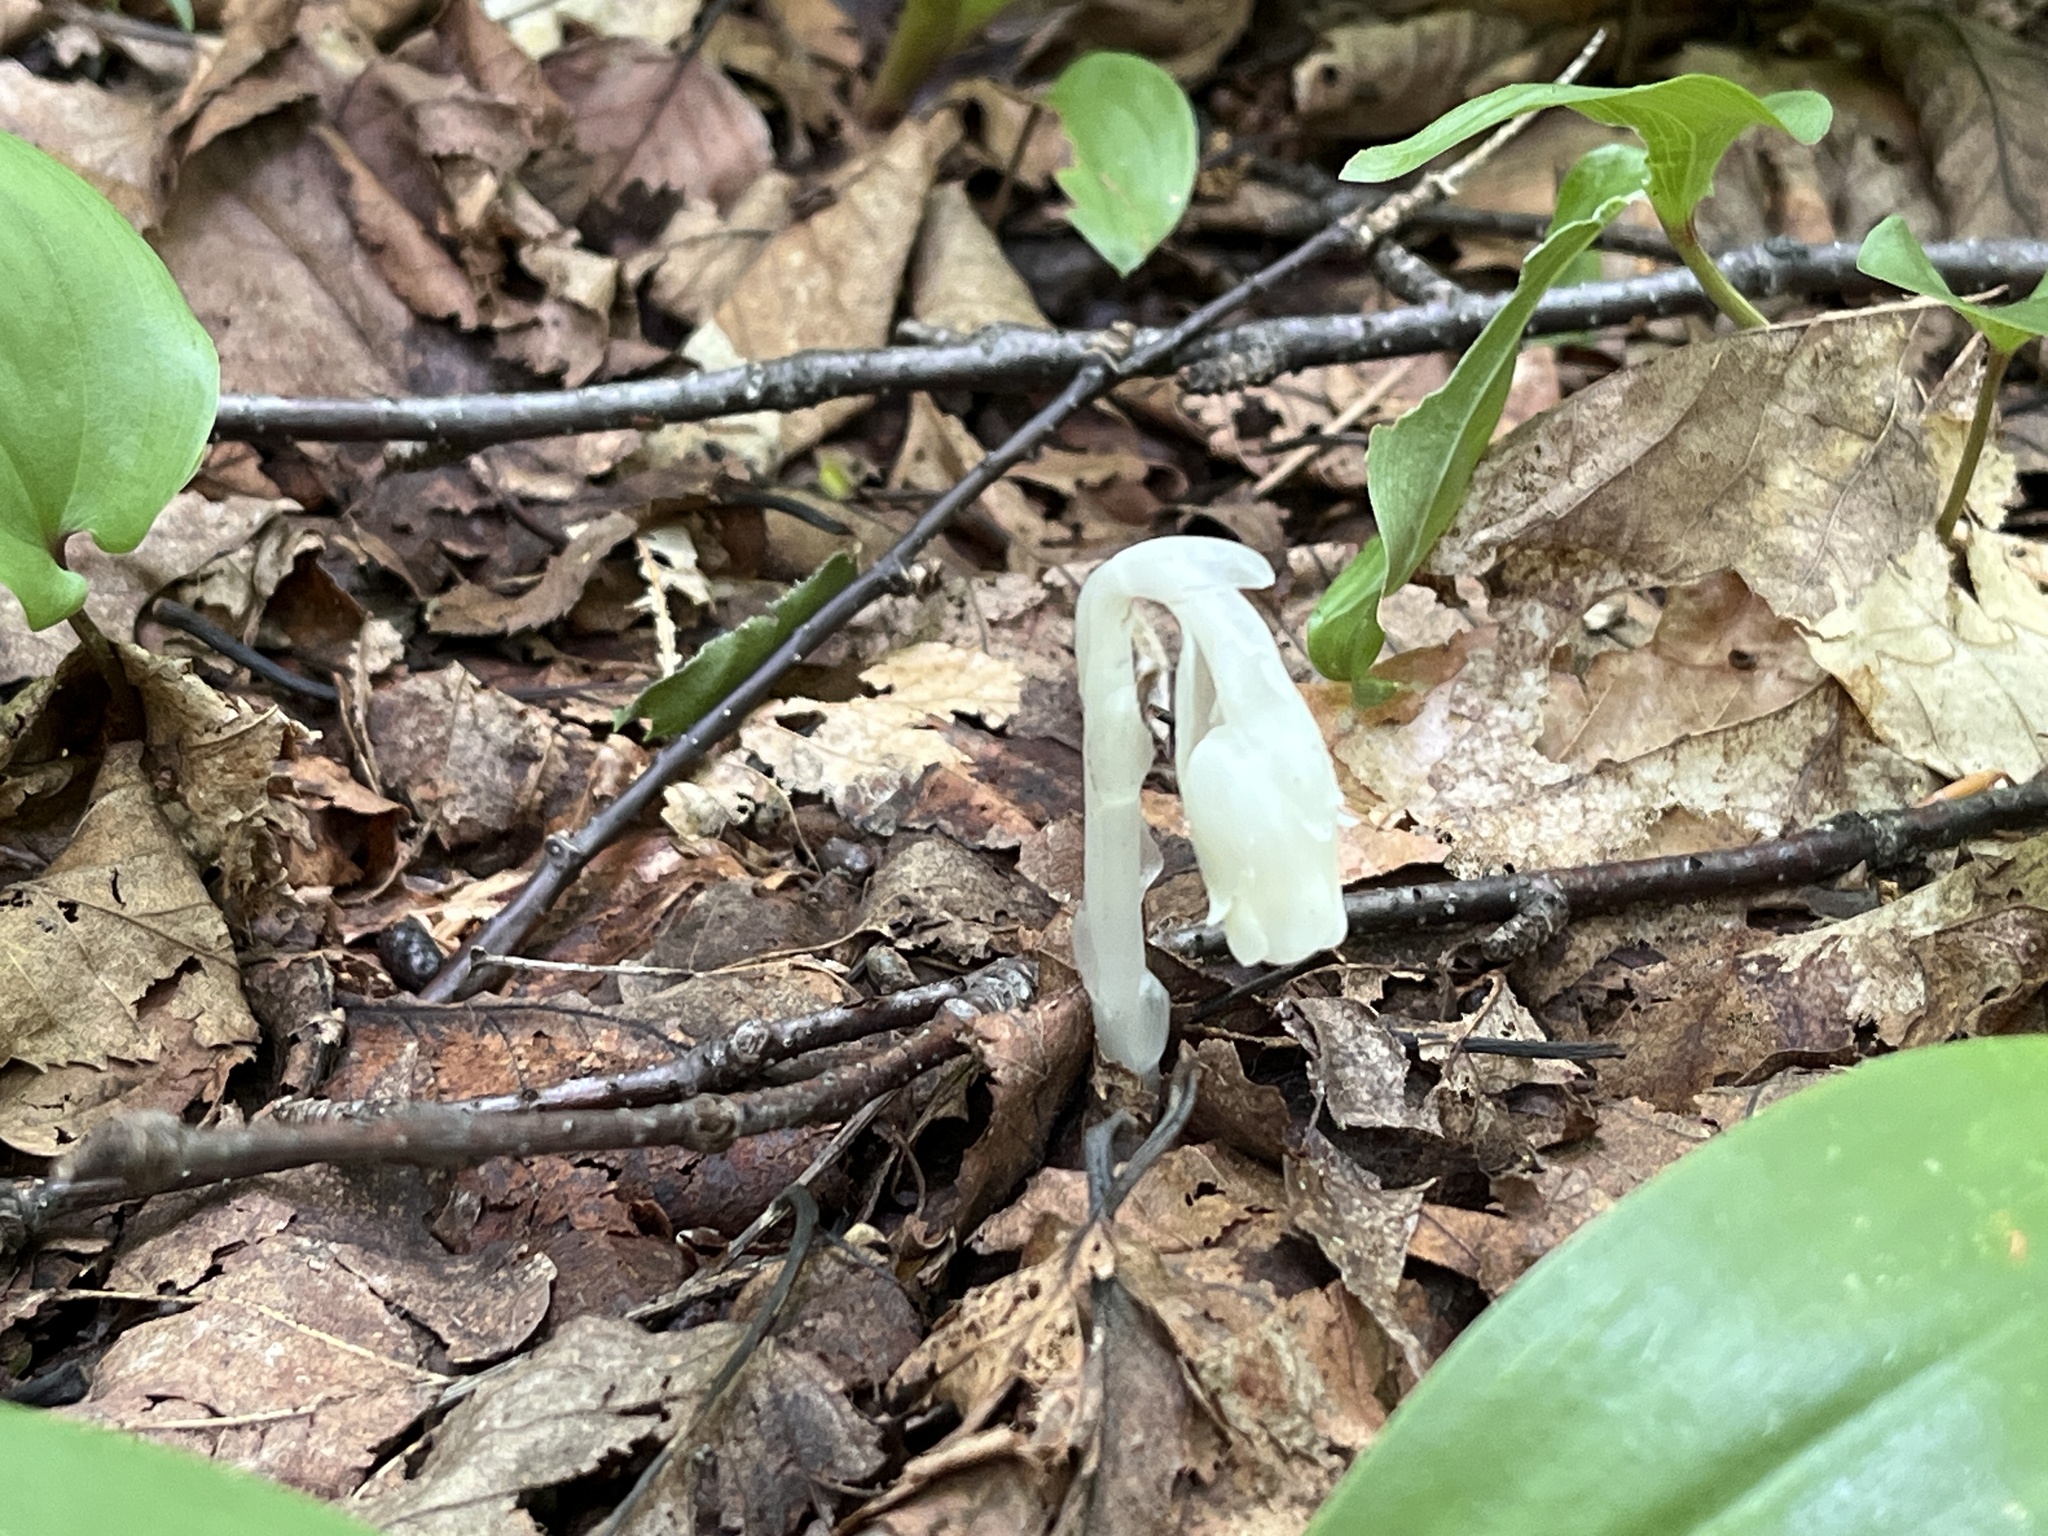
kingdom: Plantae
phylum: Tracheophyta
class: Magnoliopsida
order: Ericales
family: Ericaceae
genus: Monotropa
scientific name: Monotropa uniflora
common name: Convulsion root
